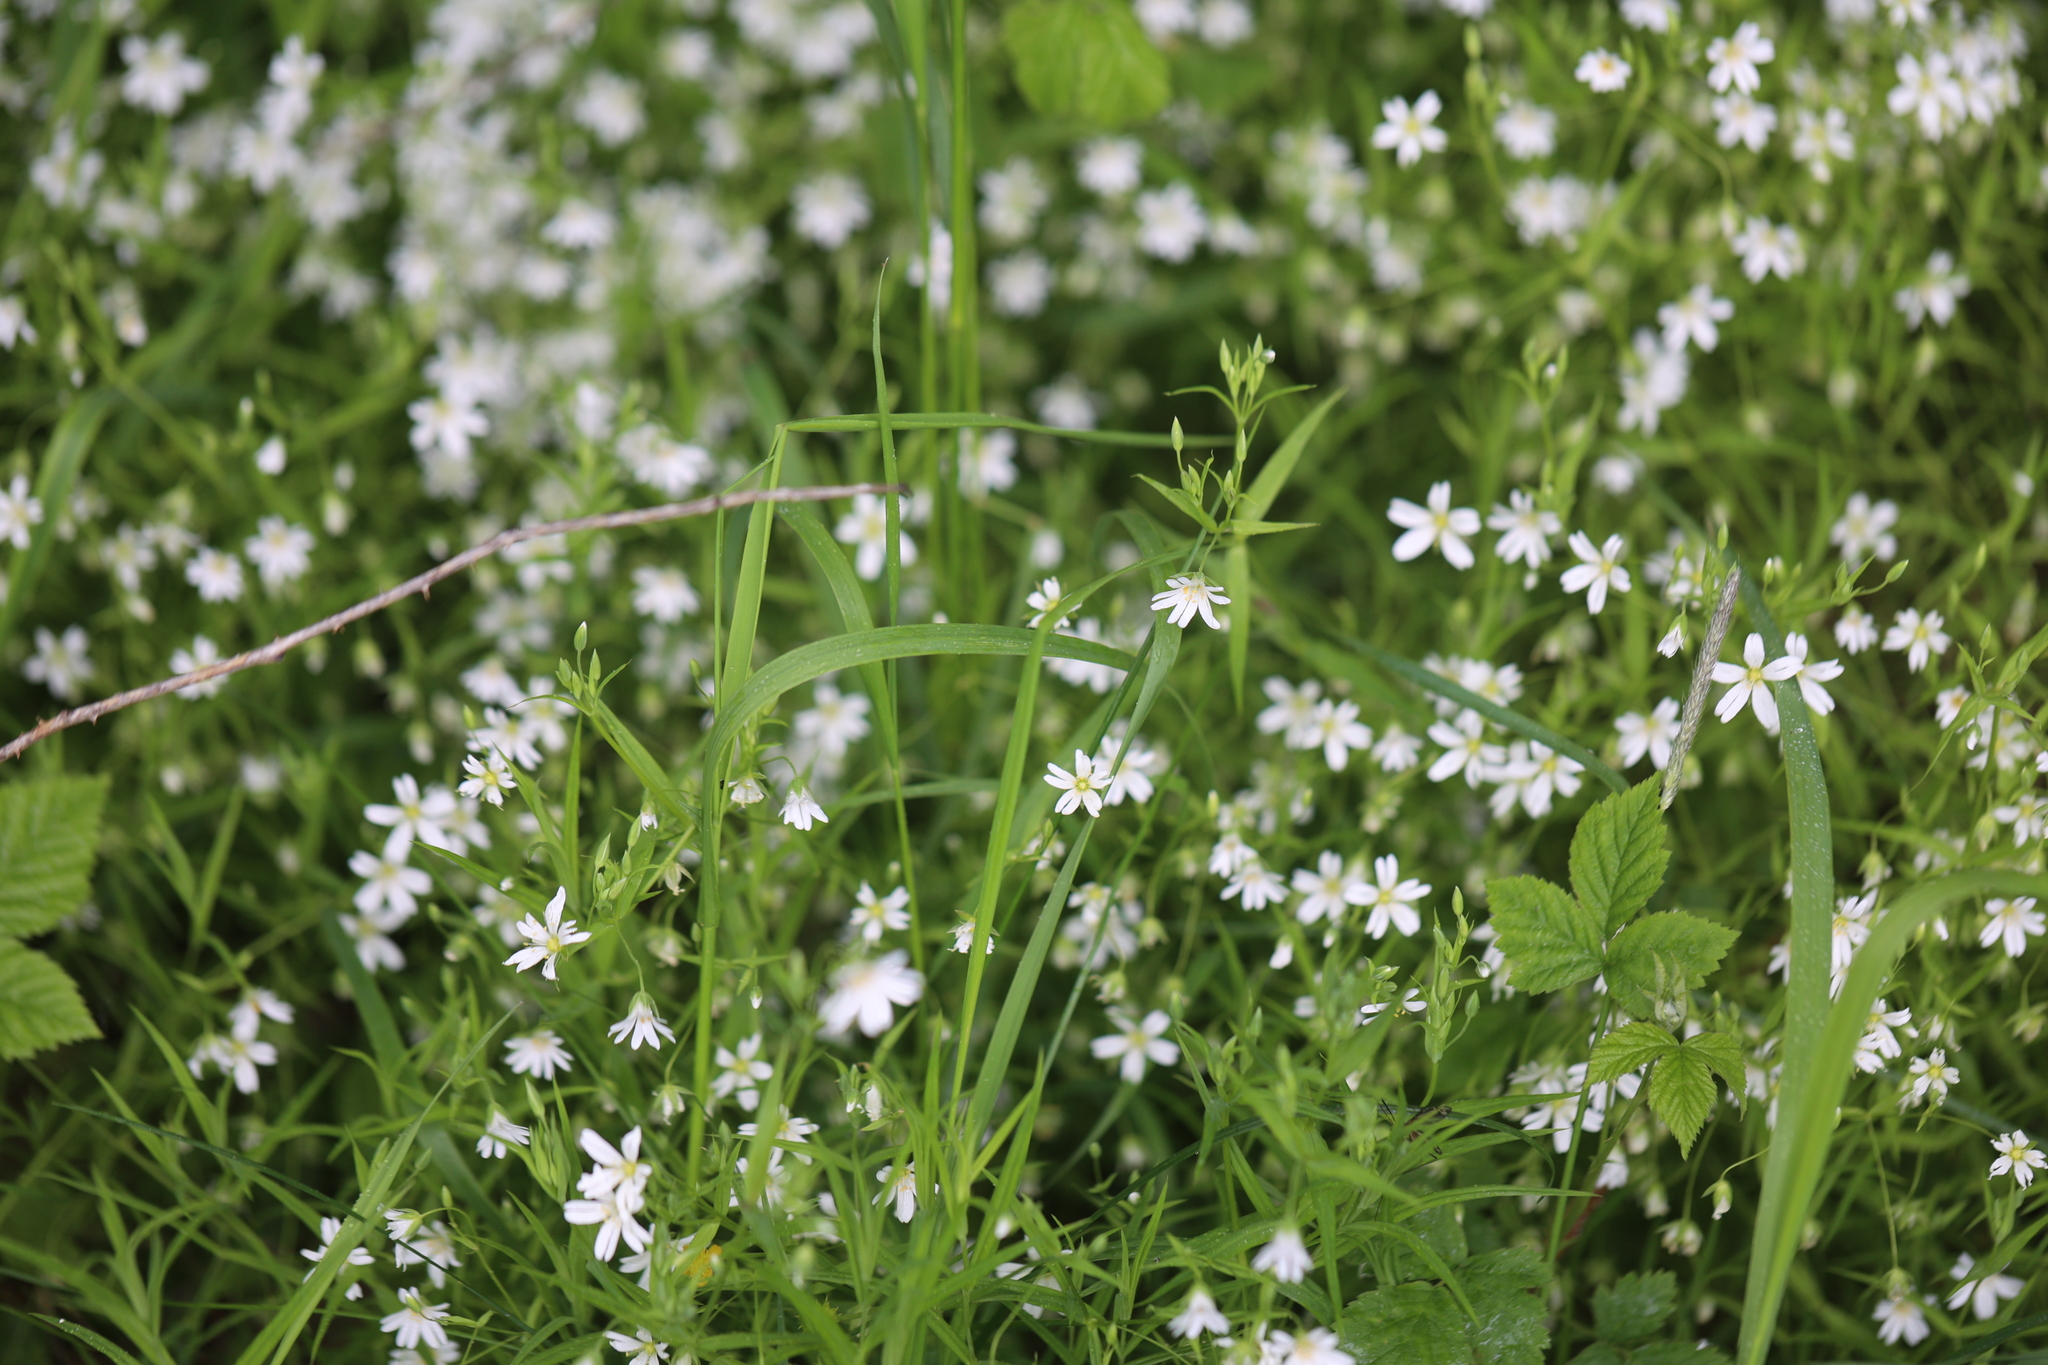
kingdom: Plantae
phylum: Tracheophyta
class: Magnoliopsida
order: Caryophyllales
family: Caryophyllaceae
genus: Rabelera
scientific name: Rabelera holostea
